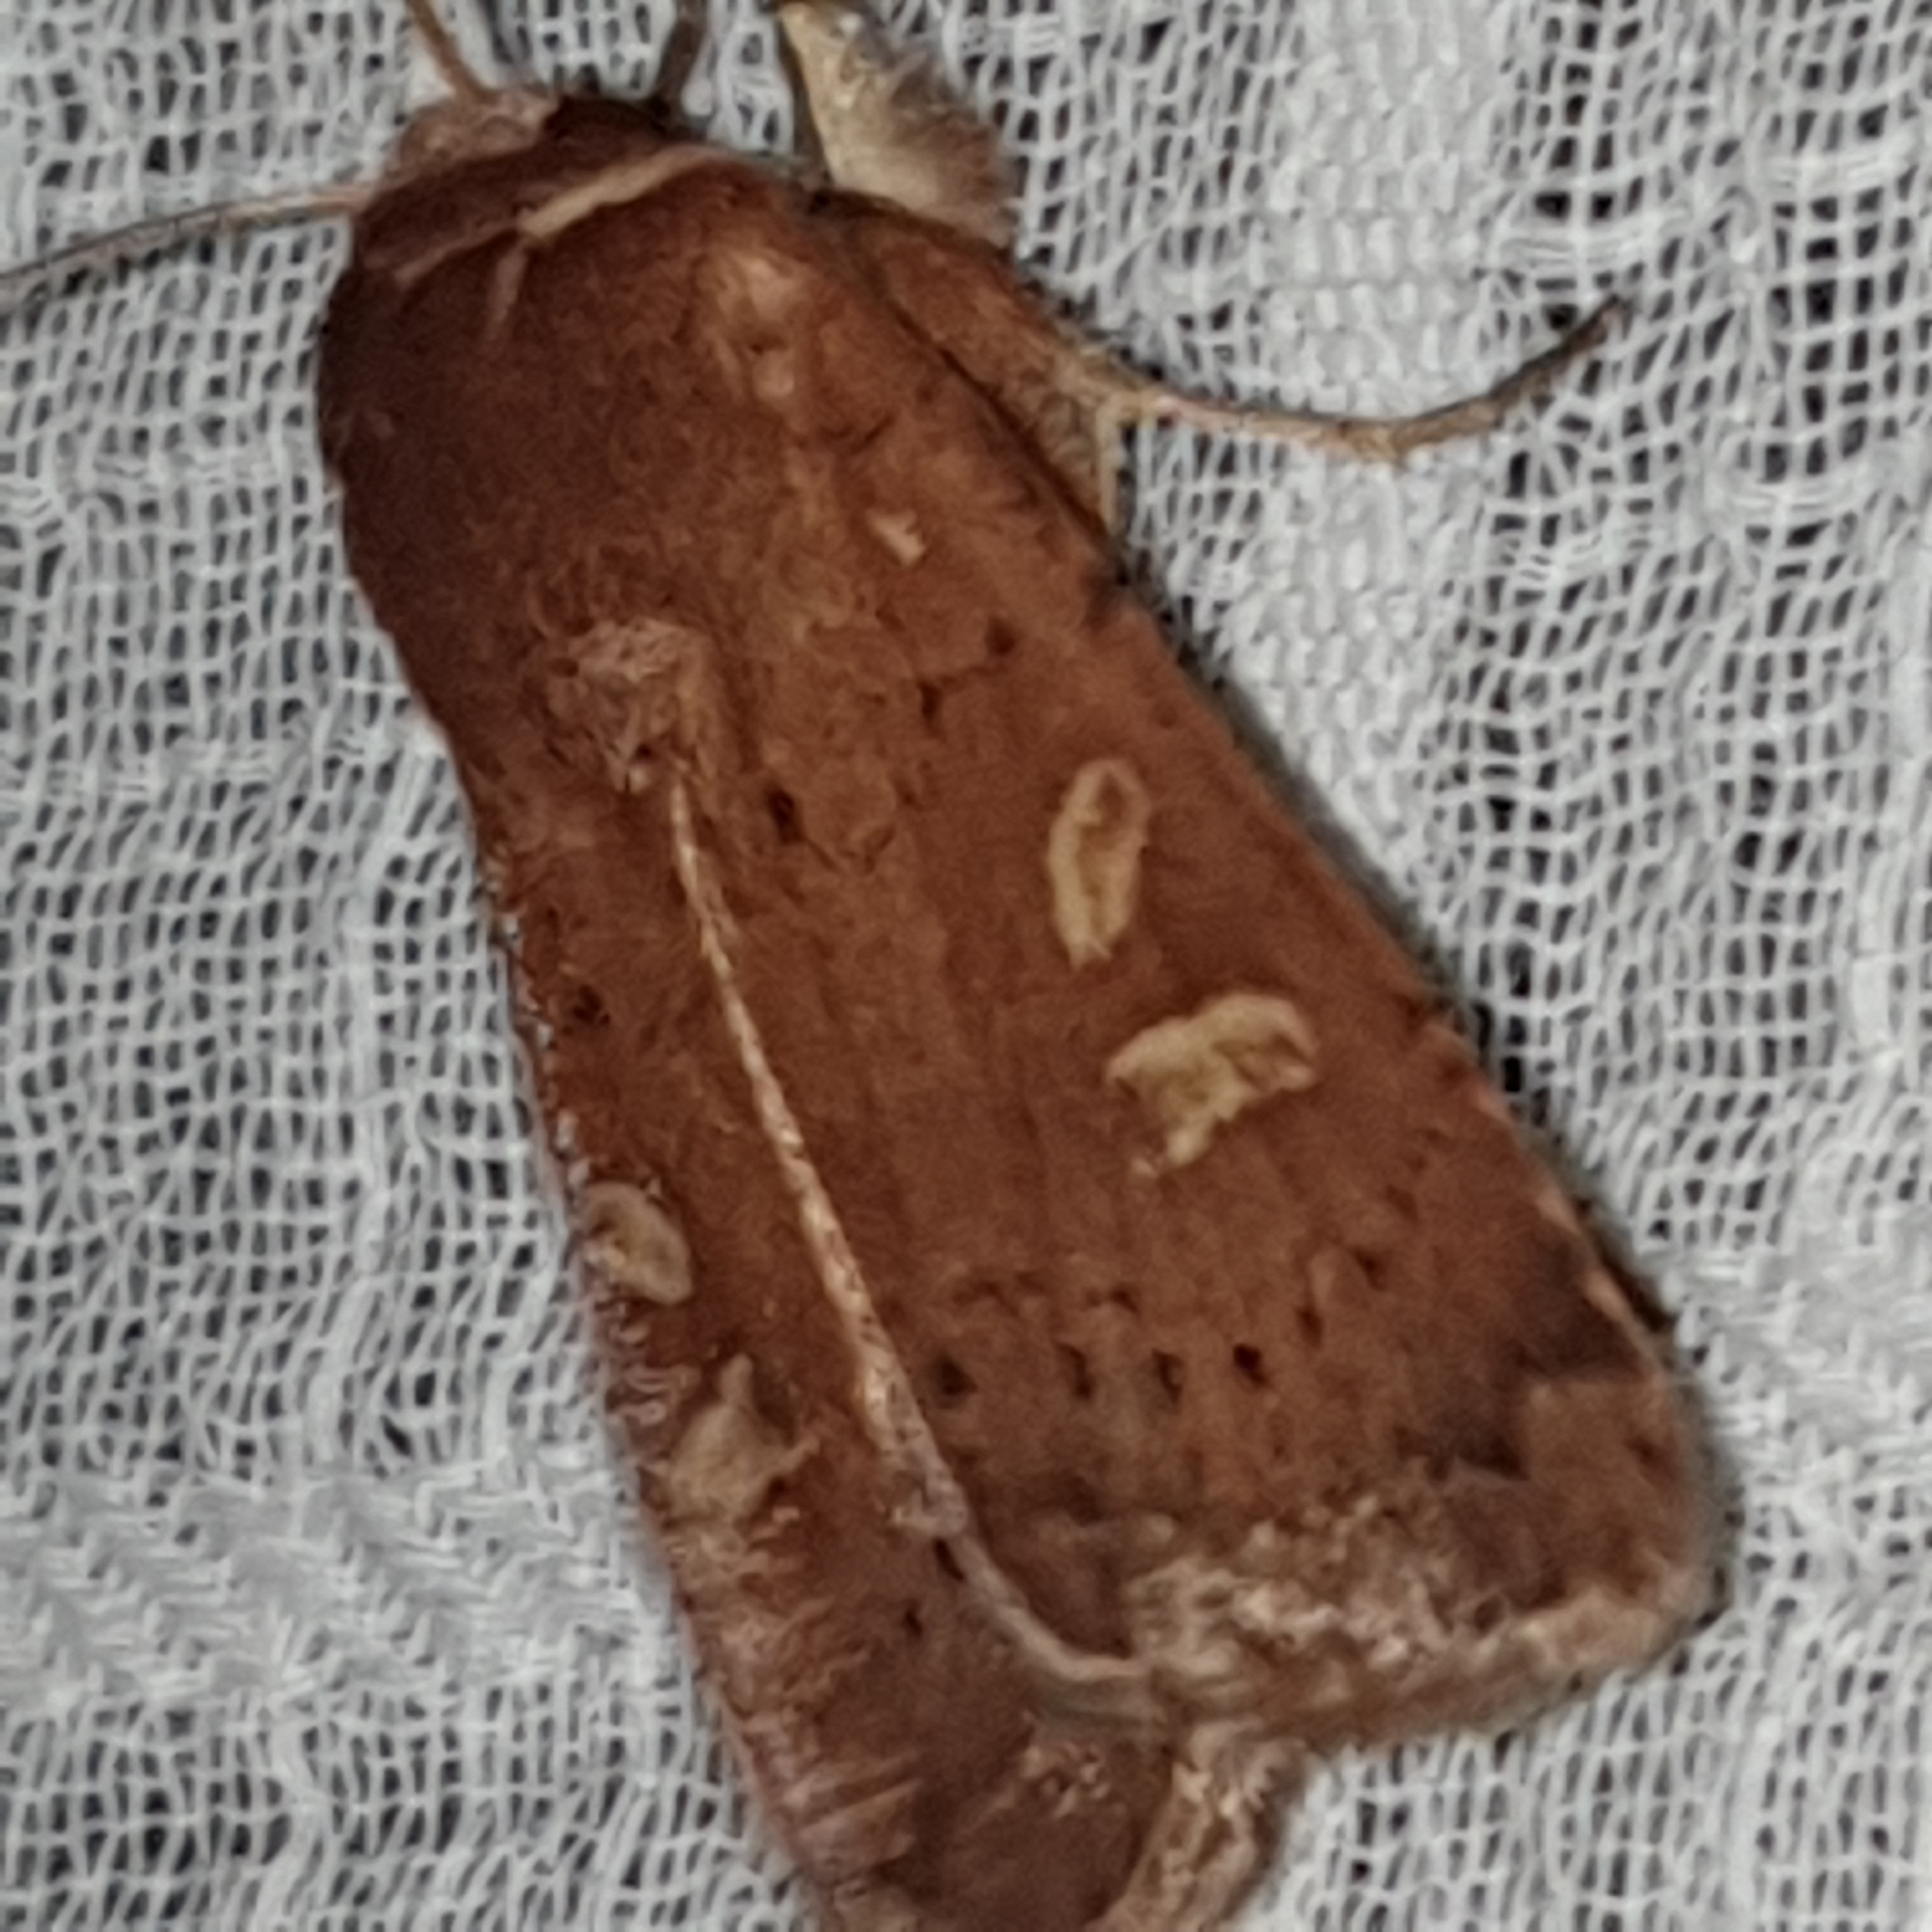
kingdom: Animalia
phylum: Arthropoda
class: Insecta
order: Lepidoptera
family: Noctuidae
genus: Xestia
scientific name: Xestia xanthographa
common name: Square-spot rustic
